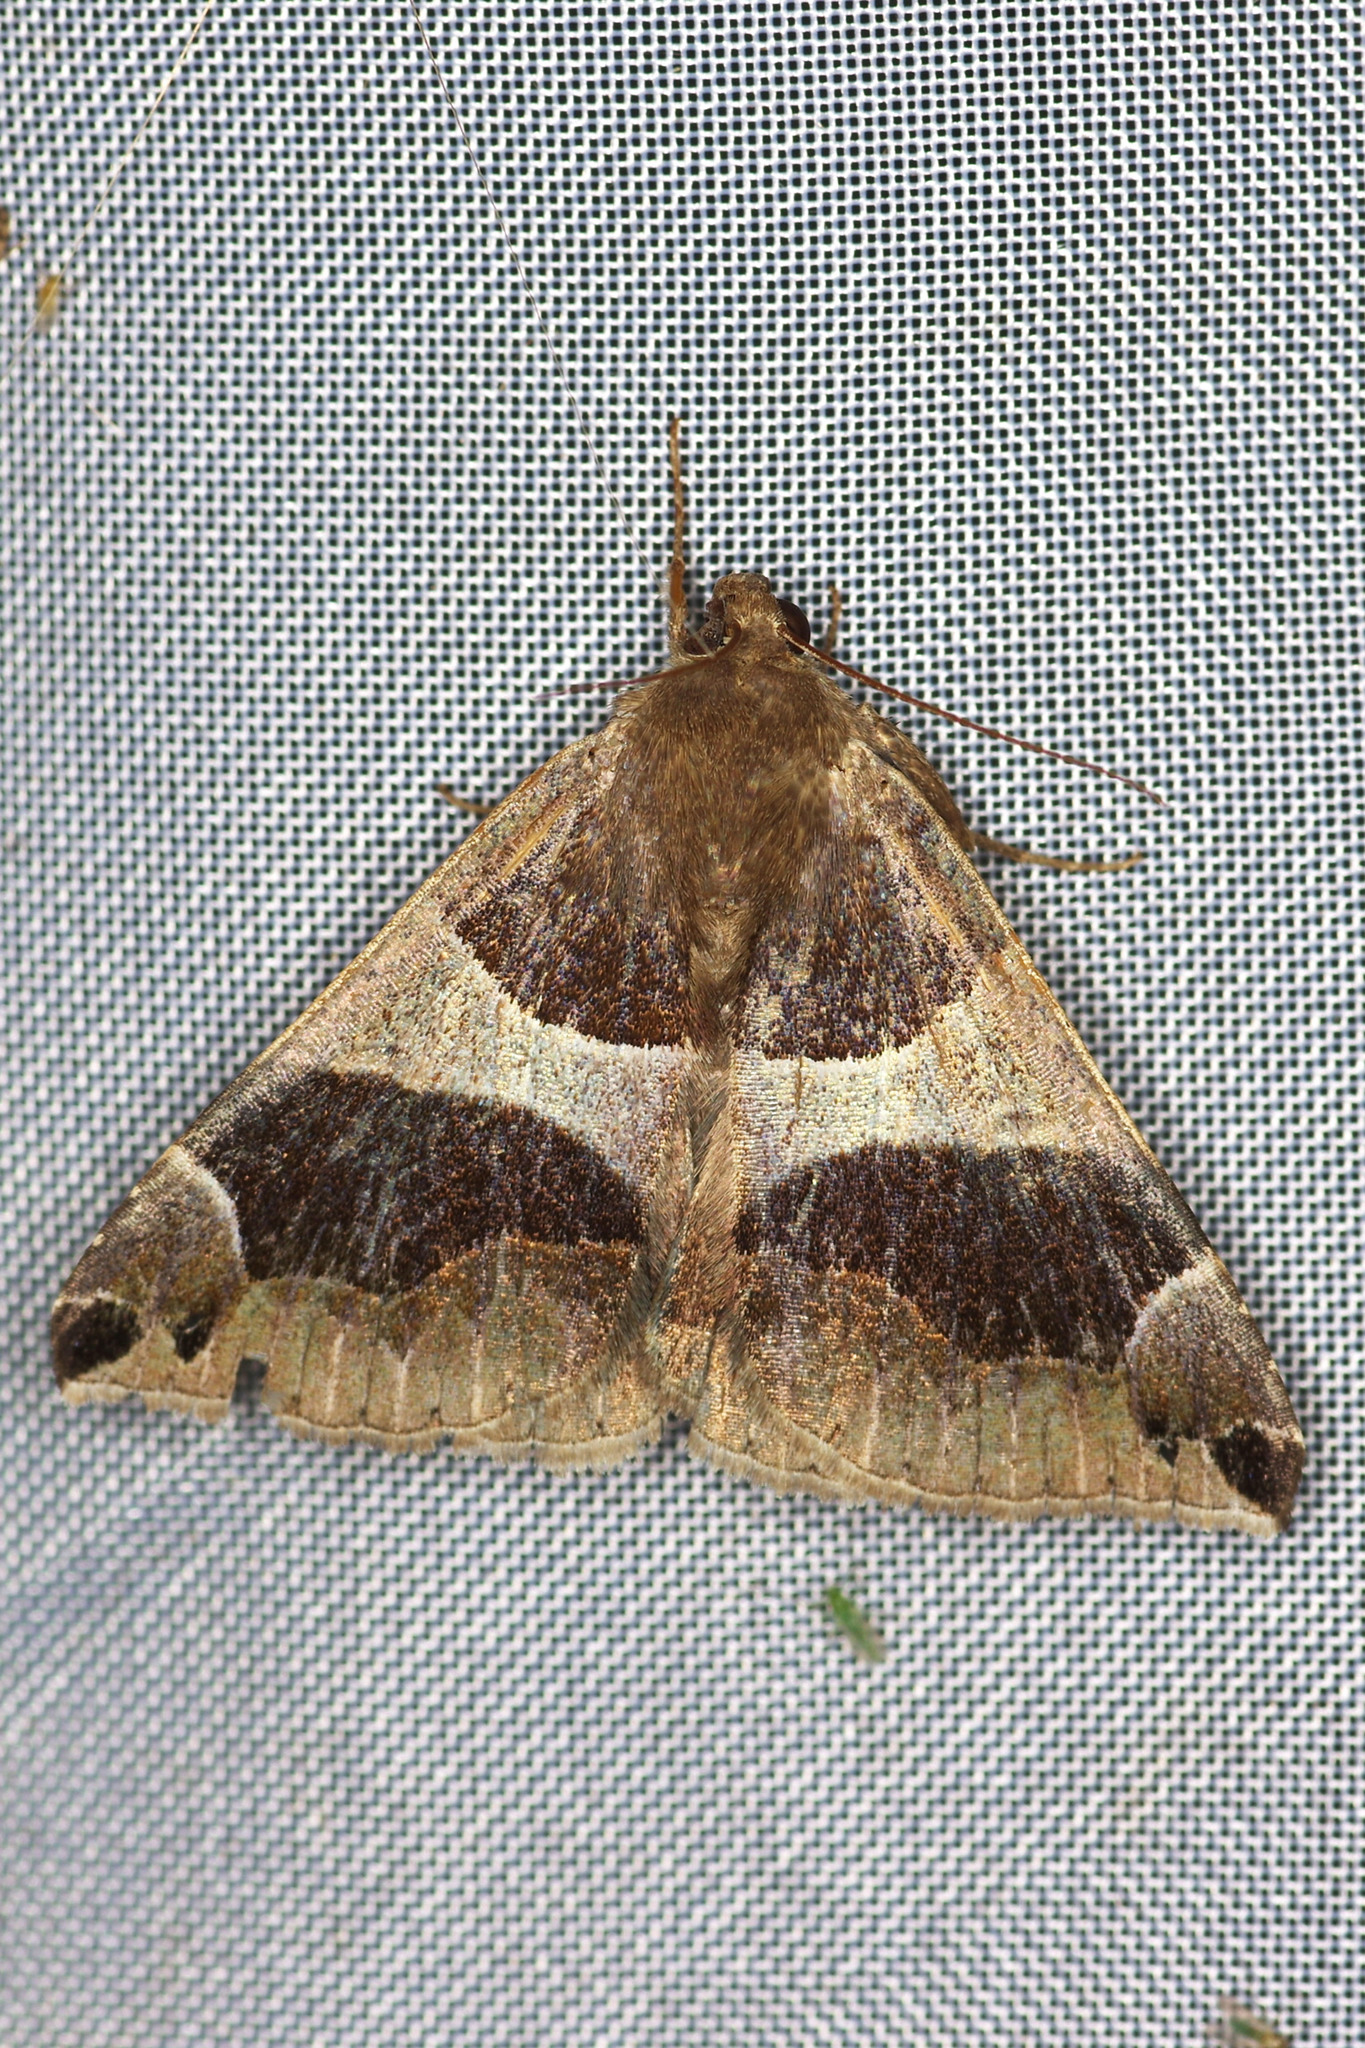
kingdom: Animalia
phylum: Arthropoda
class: Insecta
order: Lepidoptera
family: Erebidae
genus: Dysgonia
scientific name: Dysgonia algira
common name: Passenger
